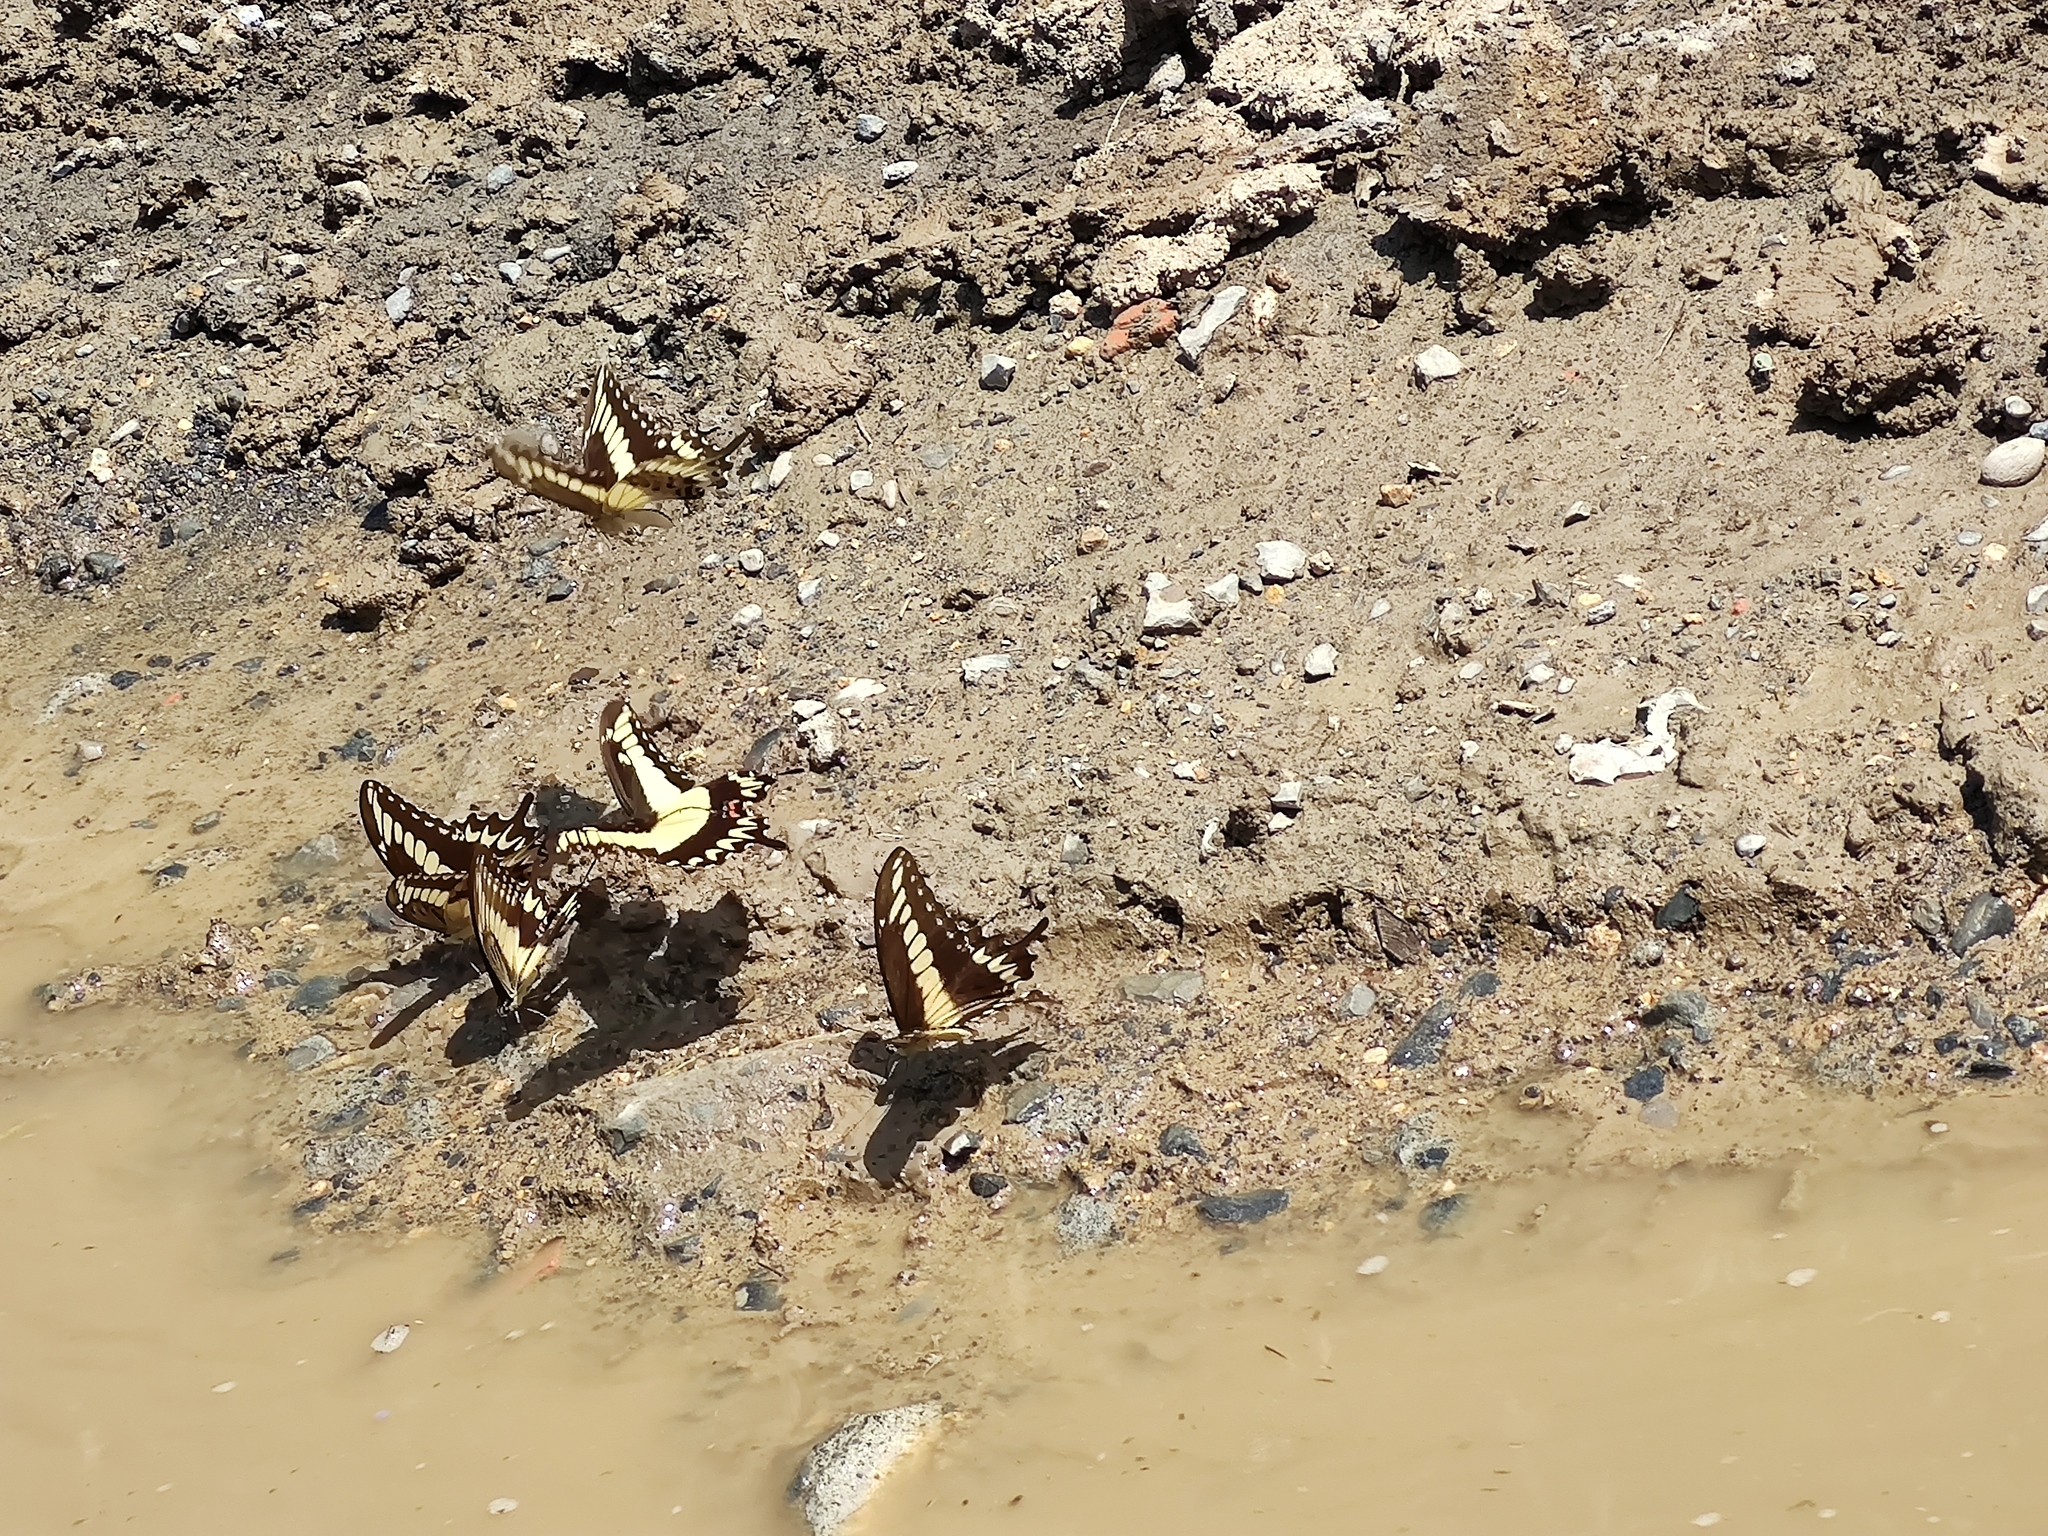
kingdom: Animalia
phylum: Arthropoda
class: Insecta
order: Lepidoptera
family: Papilionidae
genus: Heraclides
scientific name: Heraclides pallas
